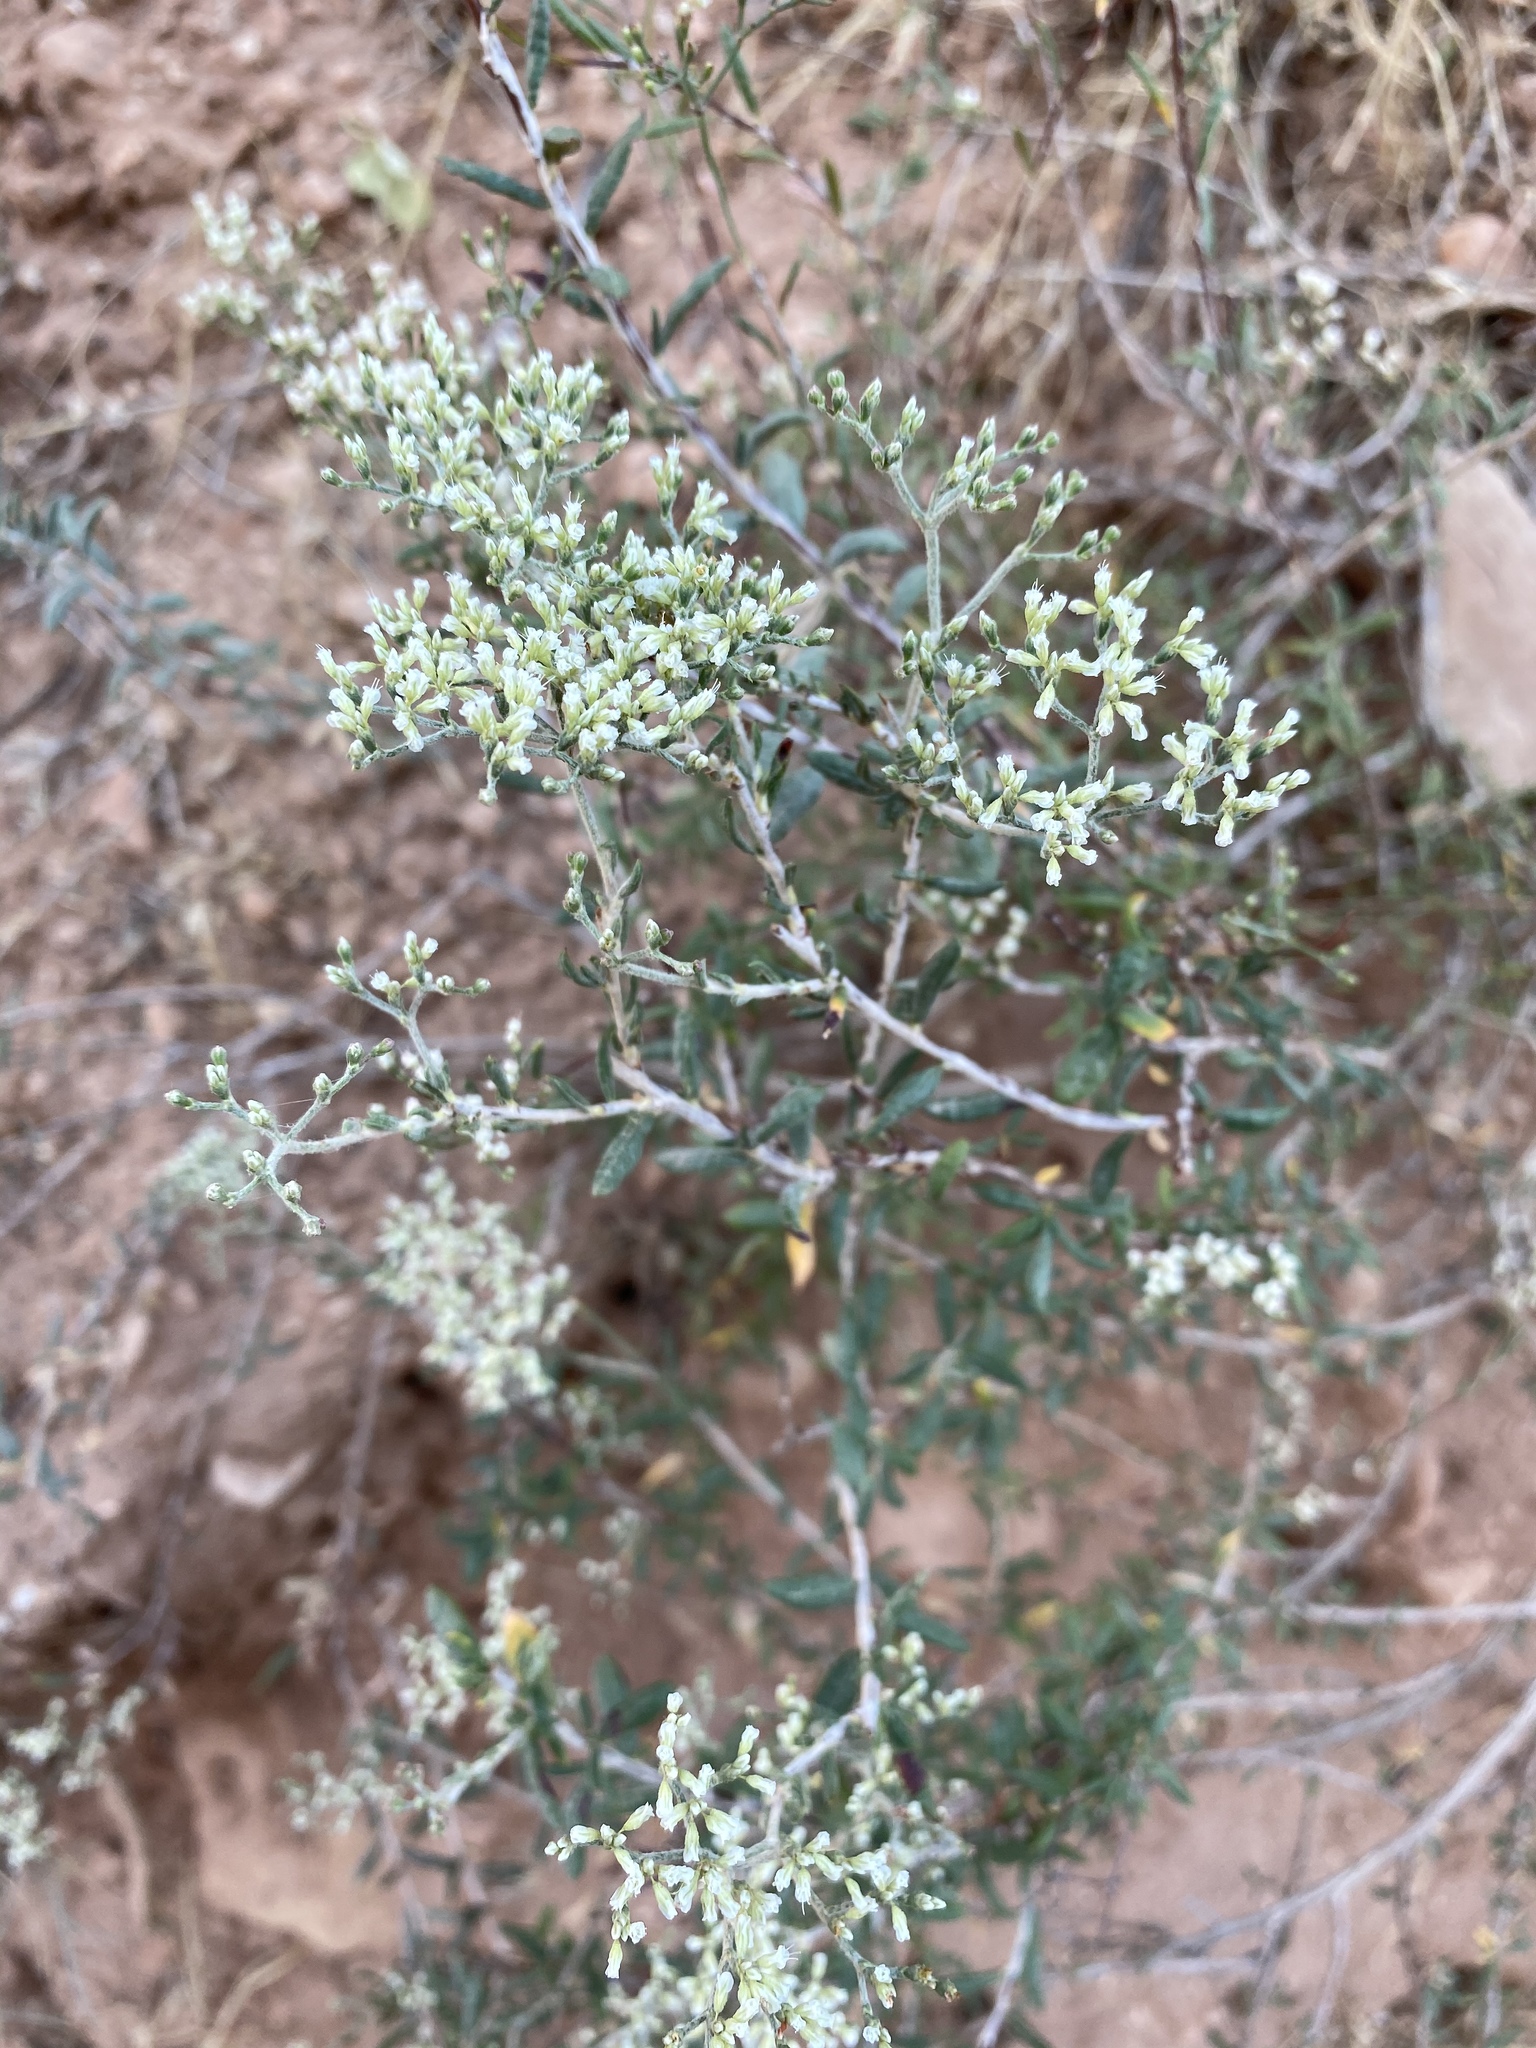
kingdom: Plantae
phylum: Tracheophyta
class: Magnoliopsida
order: Caryophyllales
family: Polygonaceae
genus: Eriogonum
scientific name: Eriogonum microtheca
